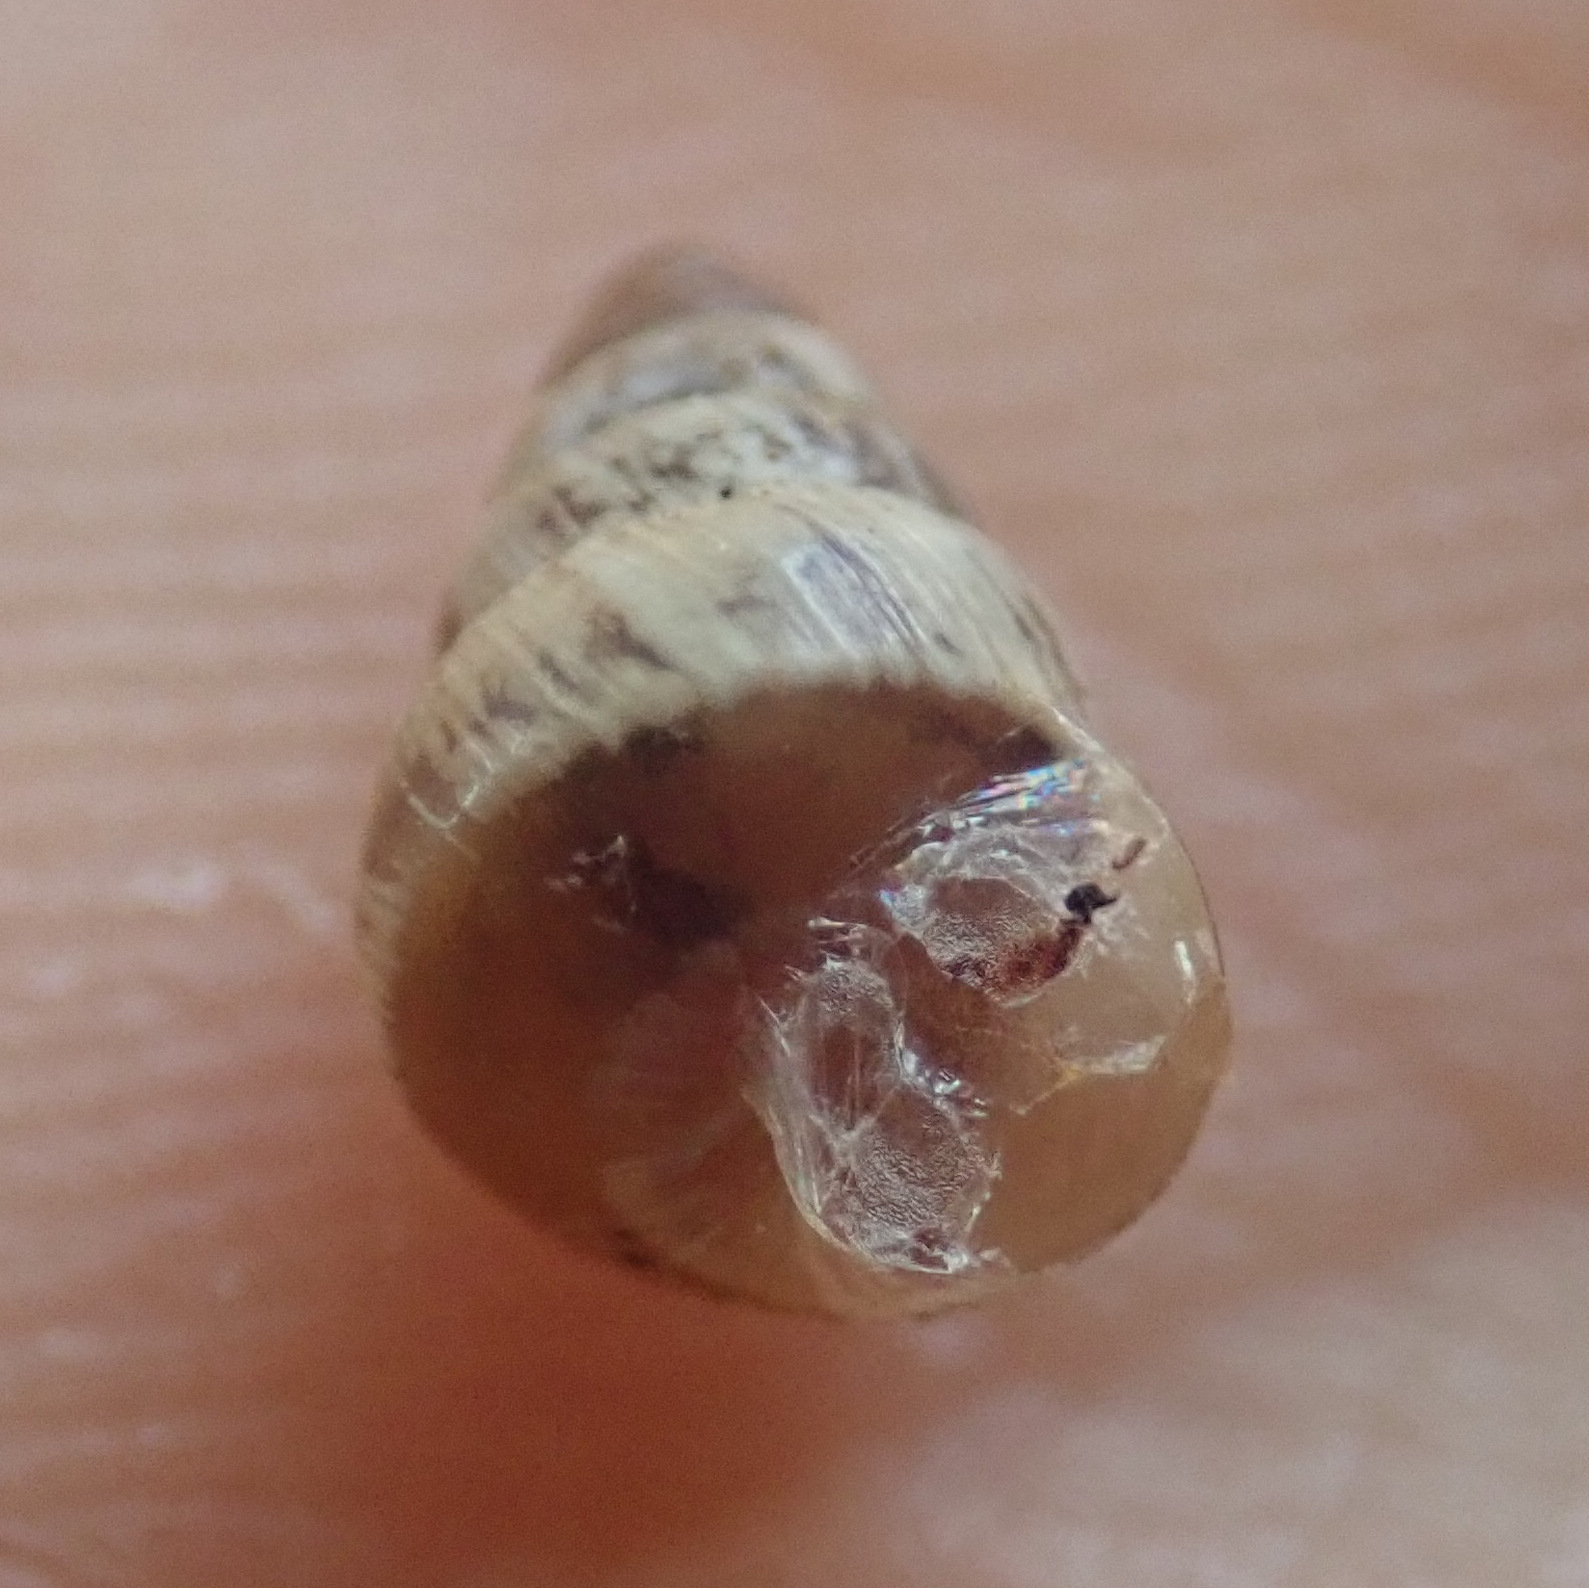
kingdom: Animalia
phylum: Mollusca
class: Gastropoda
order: Stylommatophora
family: Geomitridae
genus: Cochlicella
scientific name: Cochlicella barbara
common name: Potbellied helicellid
